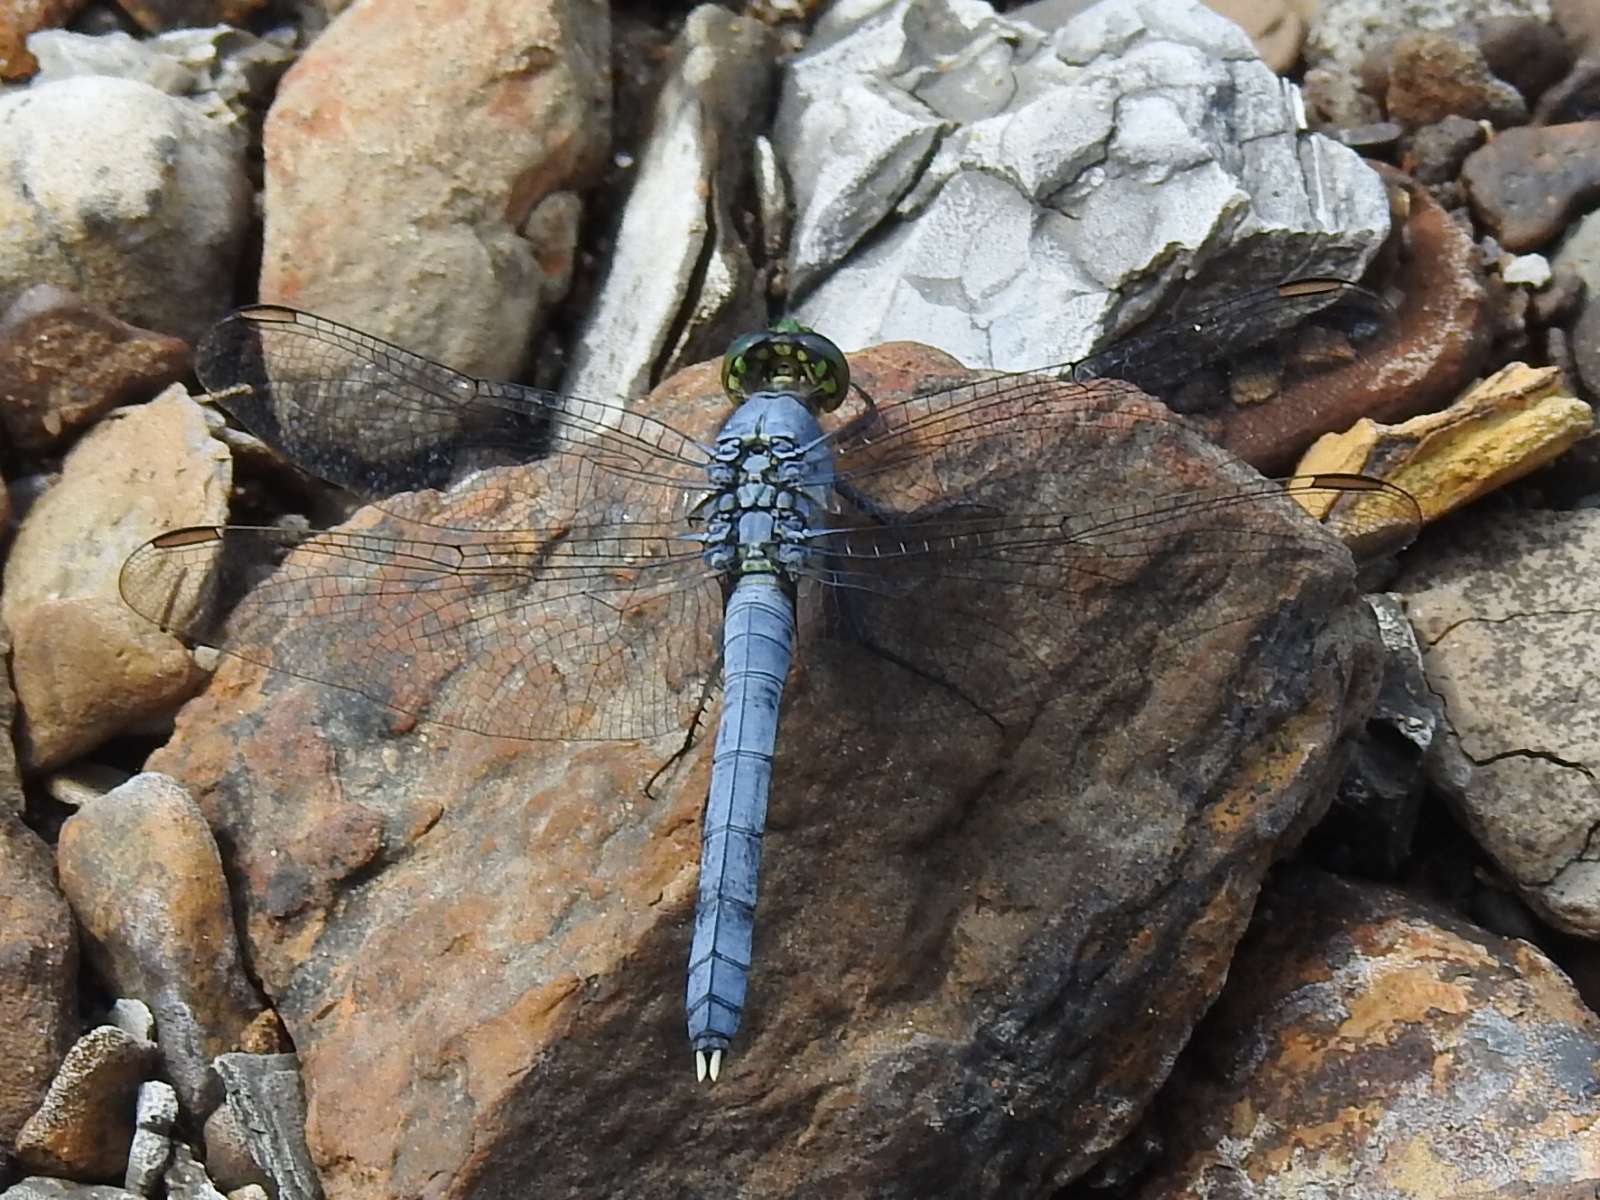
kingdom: Animalia
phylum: Arthropoda
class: Insecta
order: Odonata
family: Libellulidae
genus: Erythemis
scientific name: Erythemis simplicicollis
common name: Eastern pondhawk
